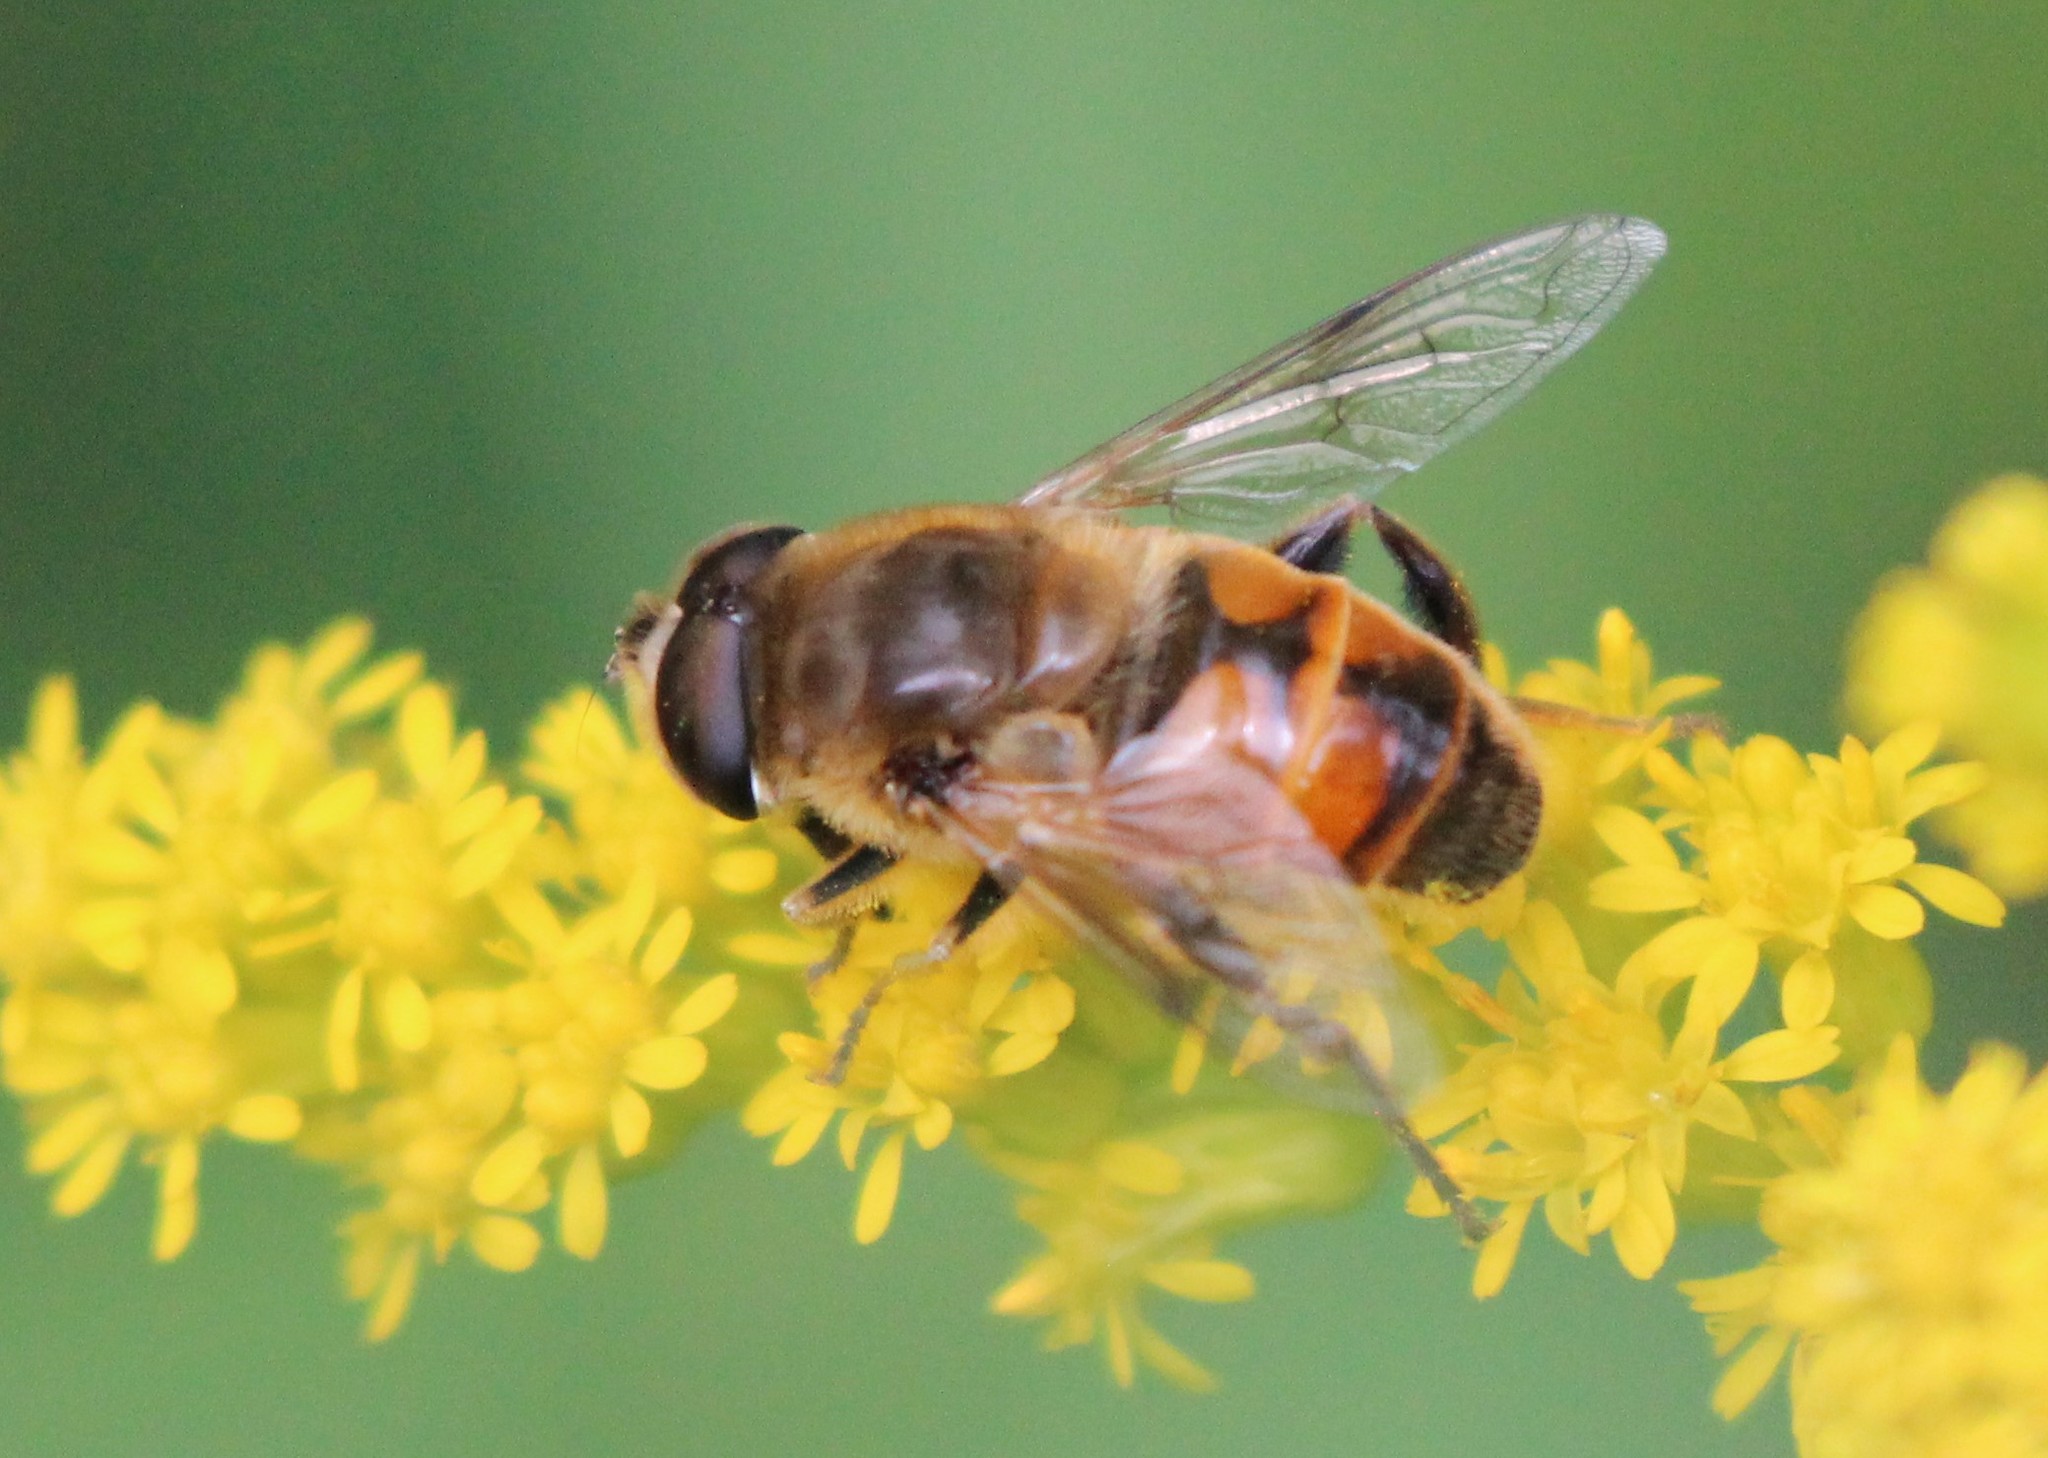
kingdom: Animalia
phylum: Arthropoda
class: Insecta
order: Diptera
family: Syrphidae
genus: Eristalis
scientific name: Eristalis tenax
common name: Drone fly
